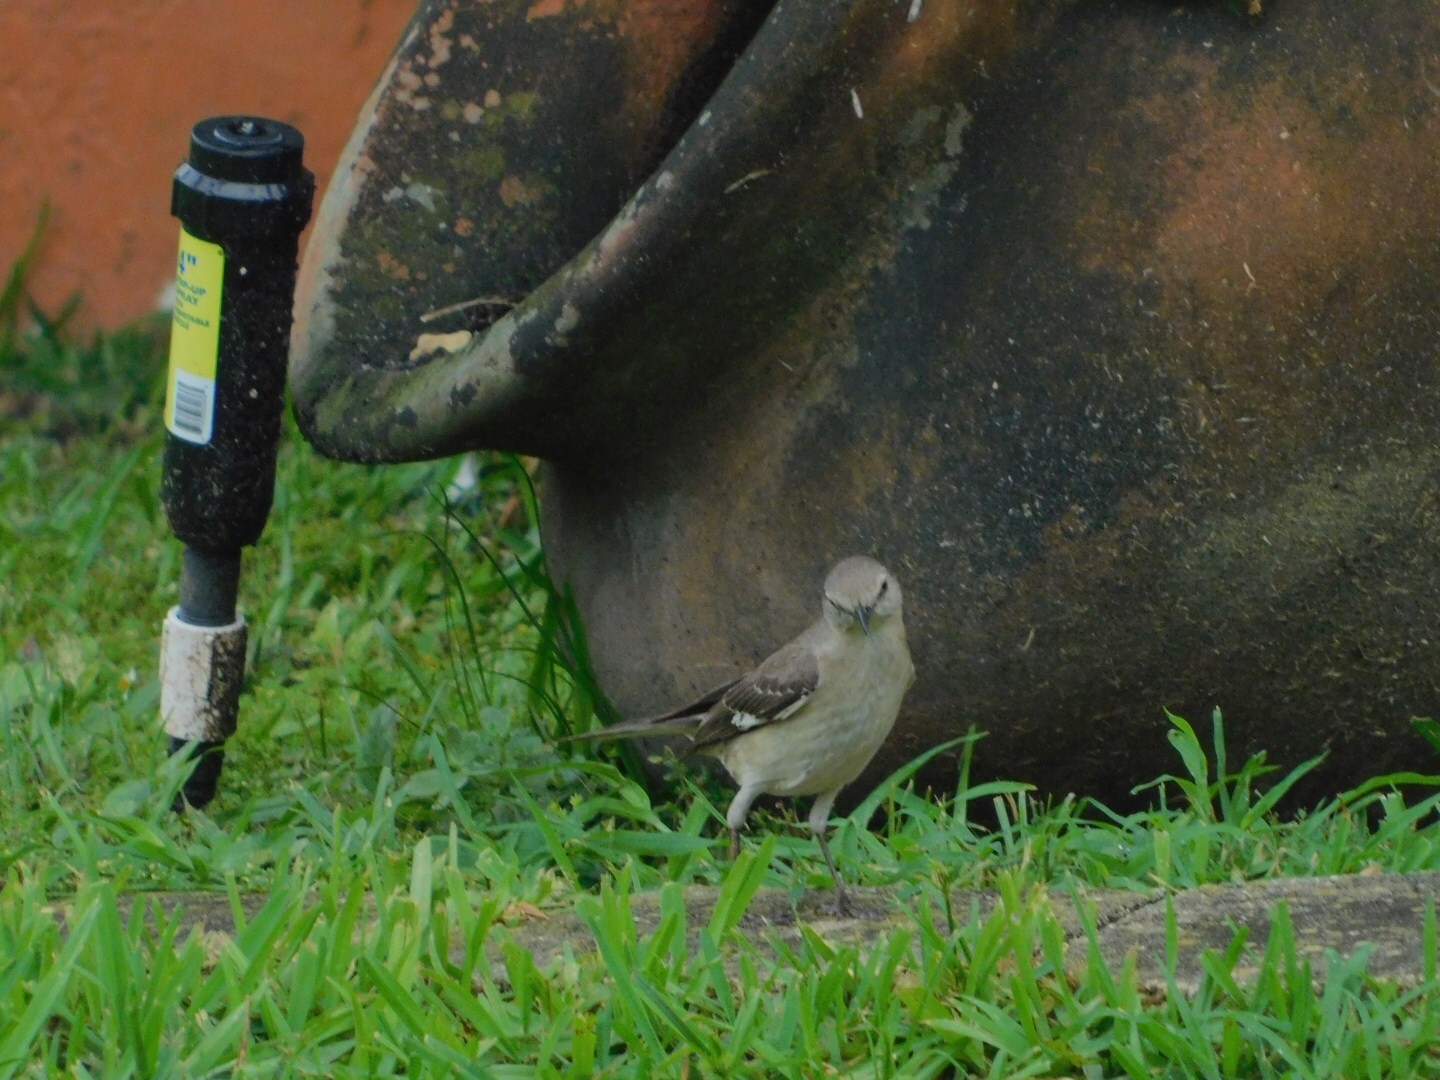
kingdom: Animalia
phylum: Chordata
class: Aves
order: Passeriformes
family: Mimidae
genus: Mimus
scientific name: Mimus polyglottos
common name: Northern mockingbird
